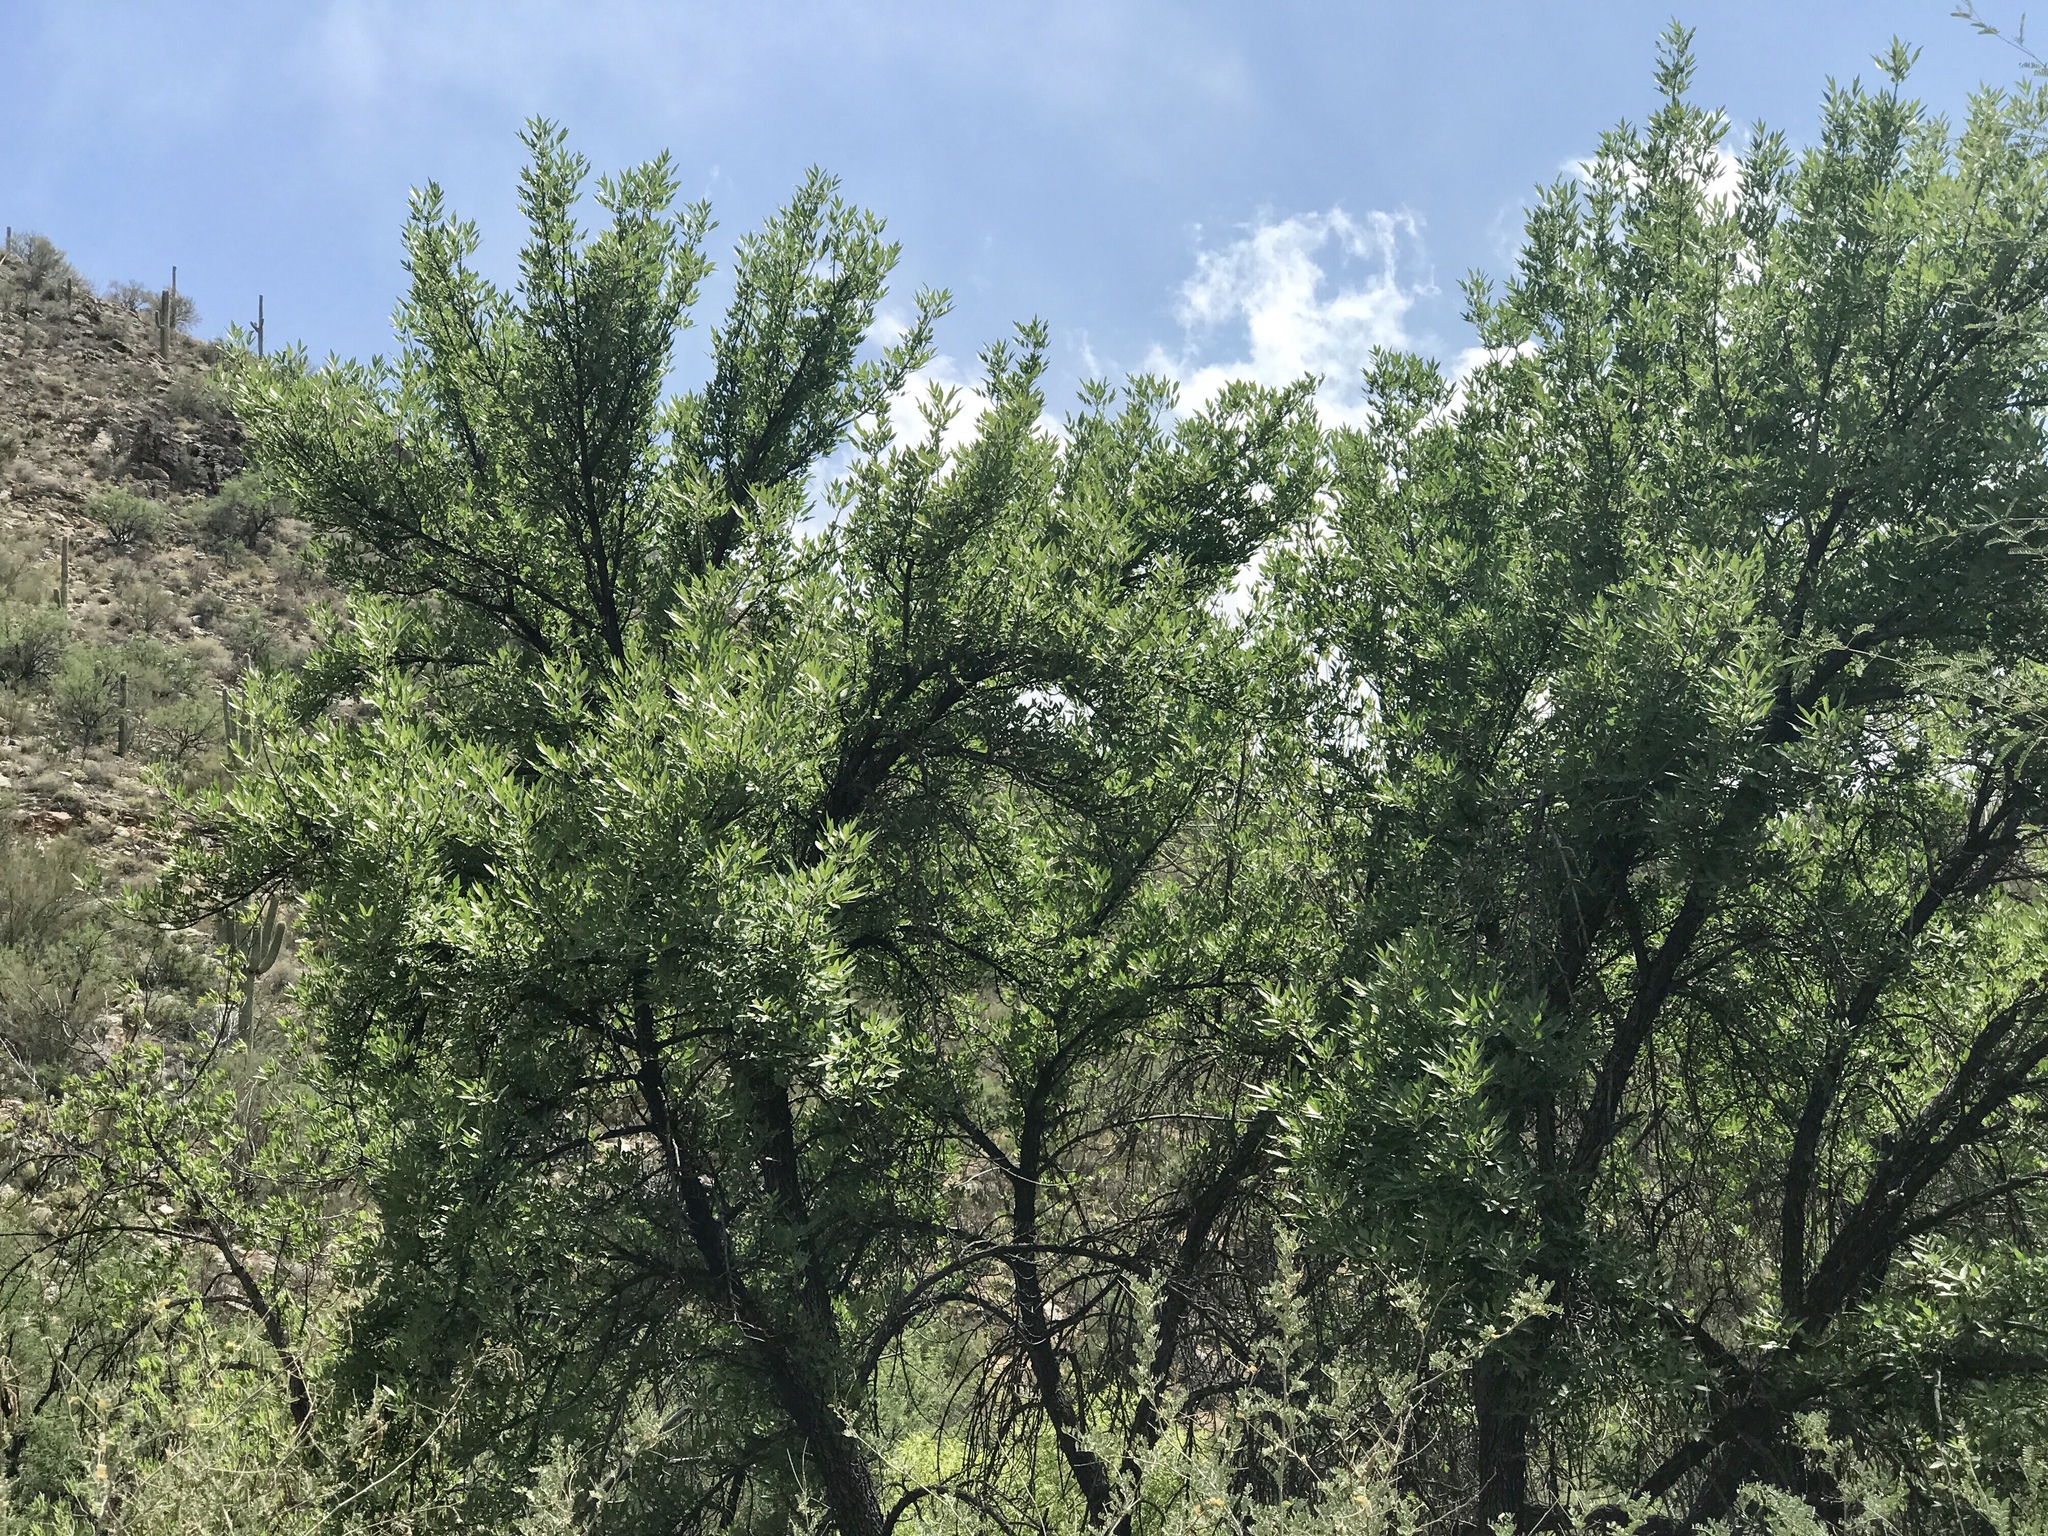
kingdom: Plantae
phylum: Tracheophyta
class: Magnoliopsida
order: Lamiales
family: Oleaceae
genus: Fraxinus
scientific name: Fraxinus velutina
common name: Arizon ash
